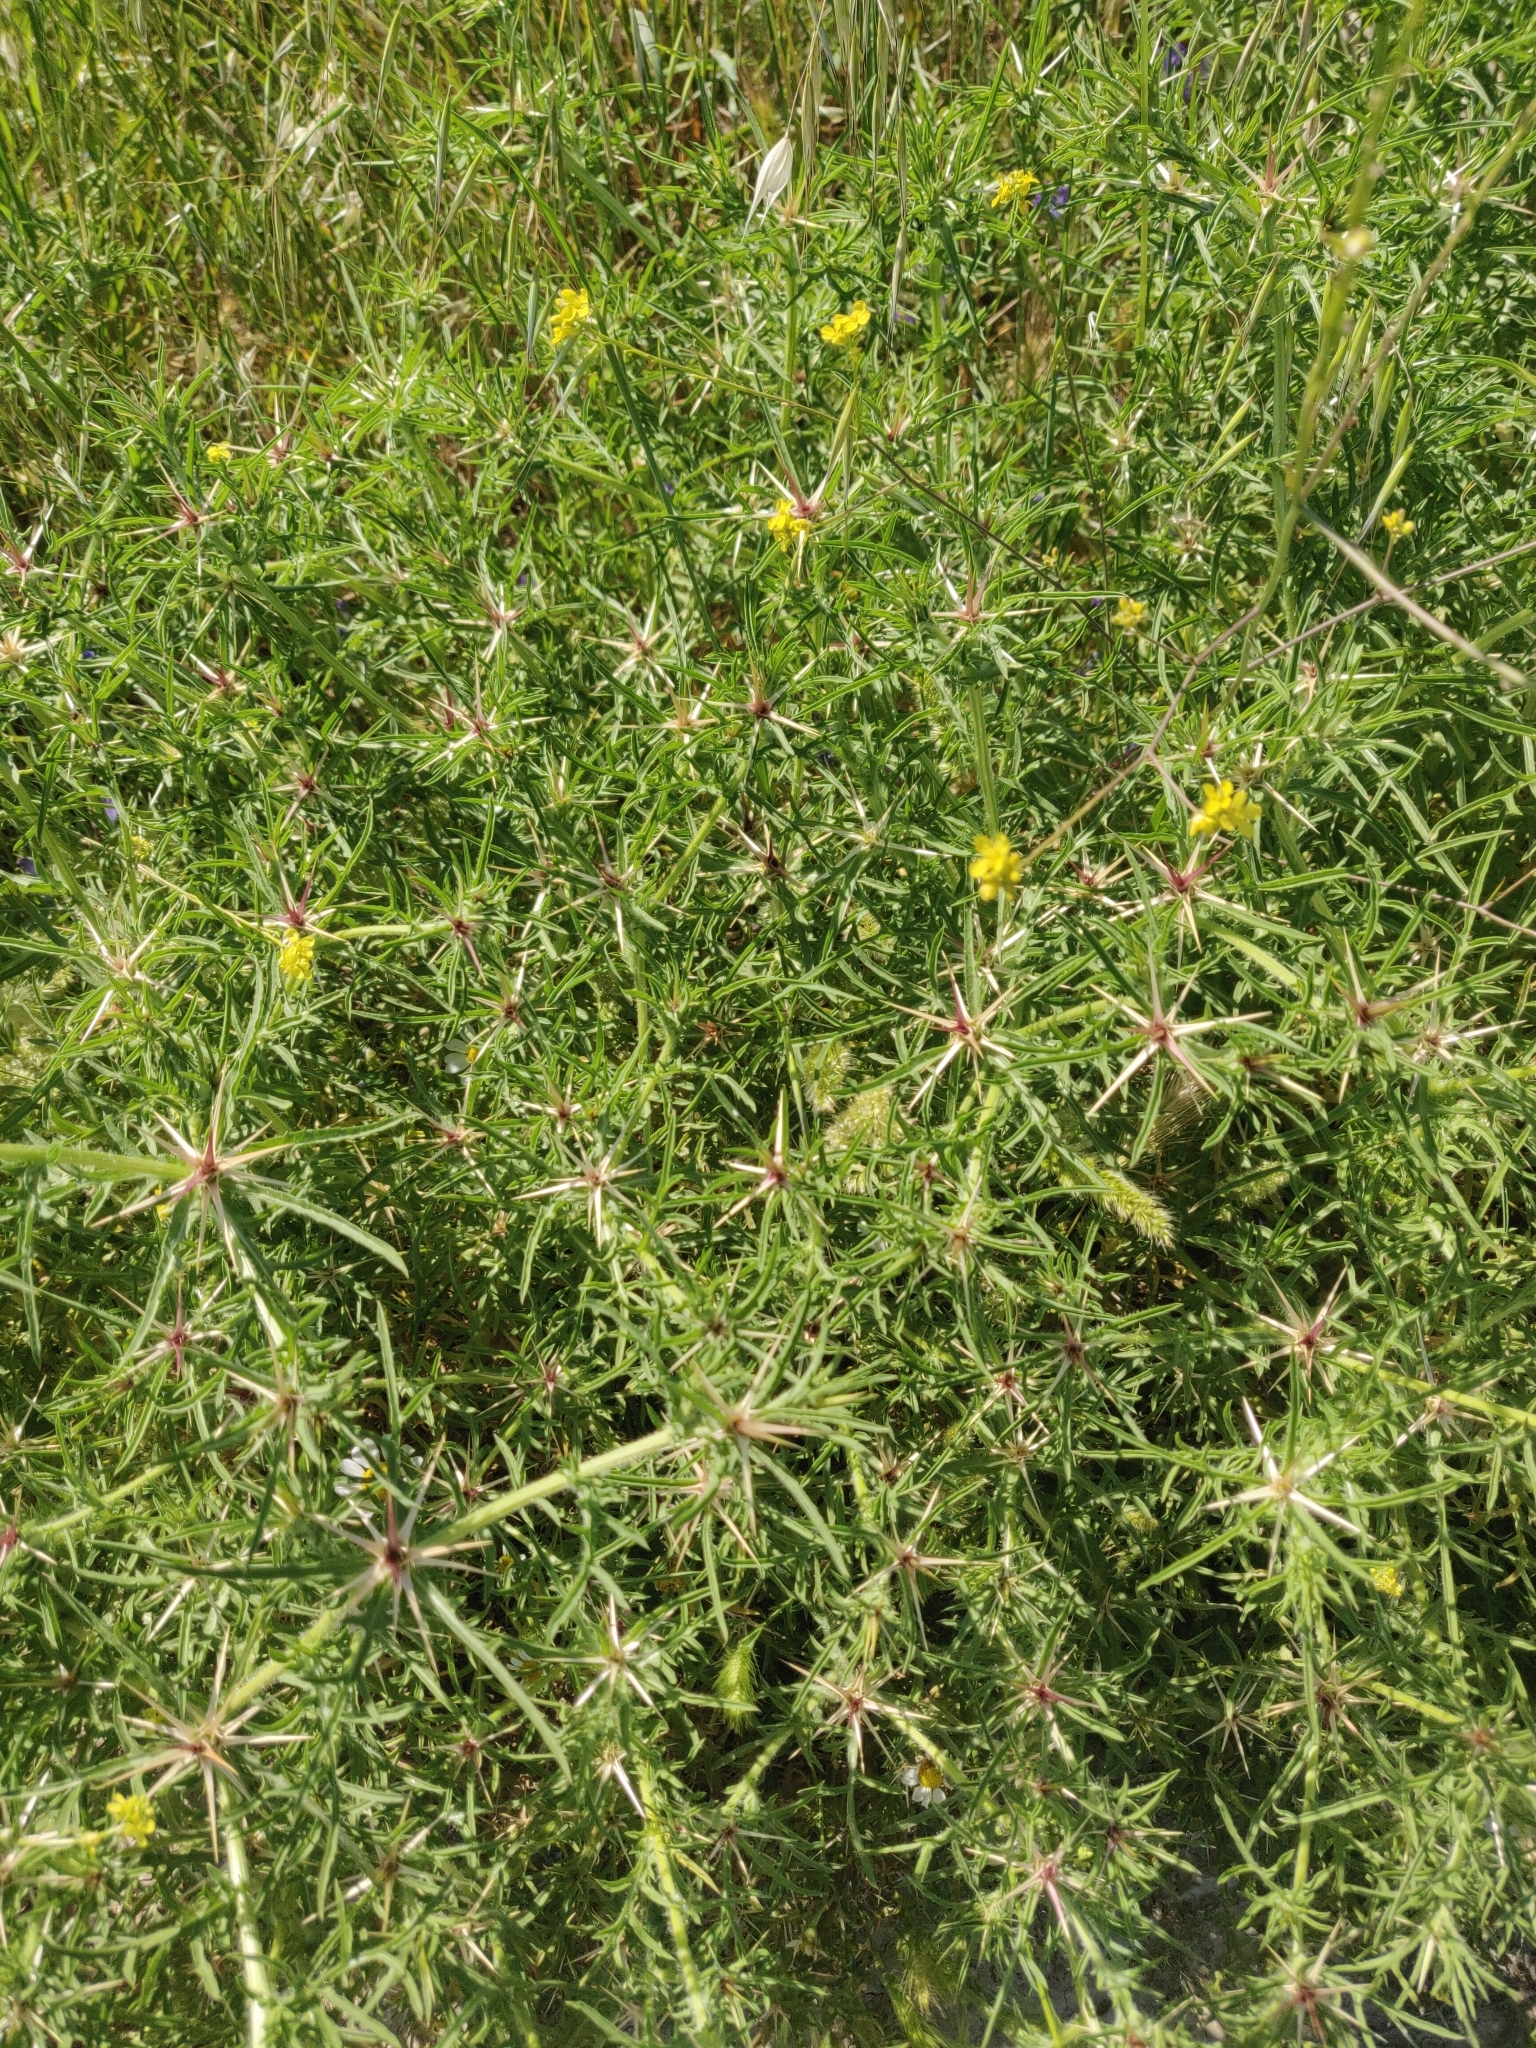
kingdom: Plantae
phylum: Tracheophyta
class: Magnoliopsida
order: Asterales
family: Asteraceae
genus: Centaurea
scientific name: Centaurea calcitrapa
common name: Red star-thistle
